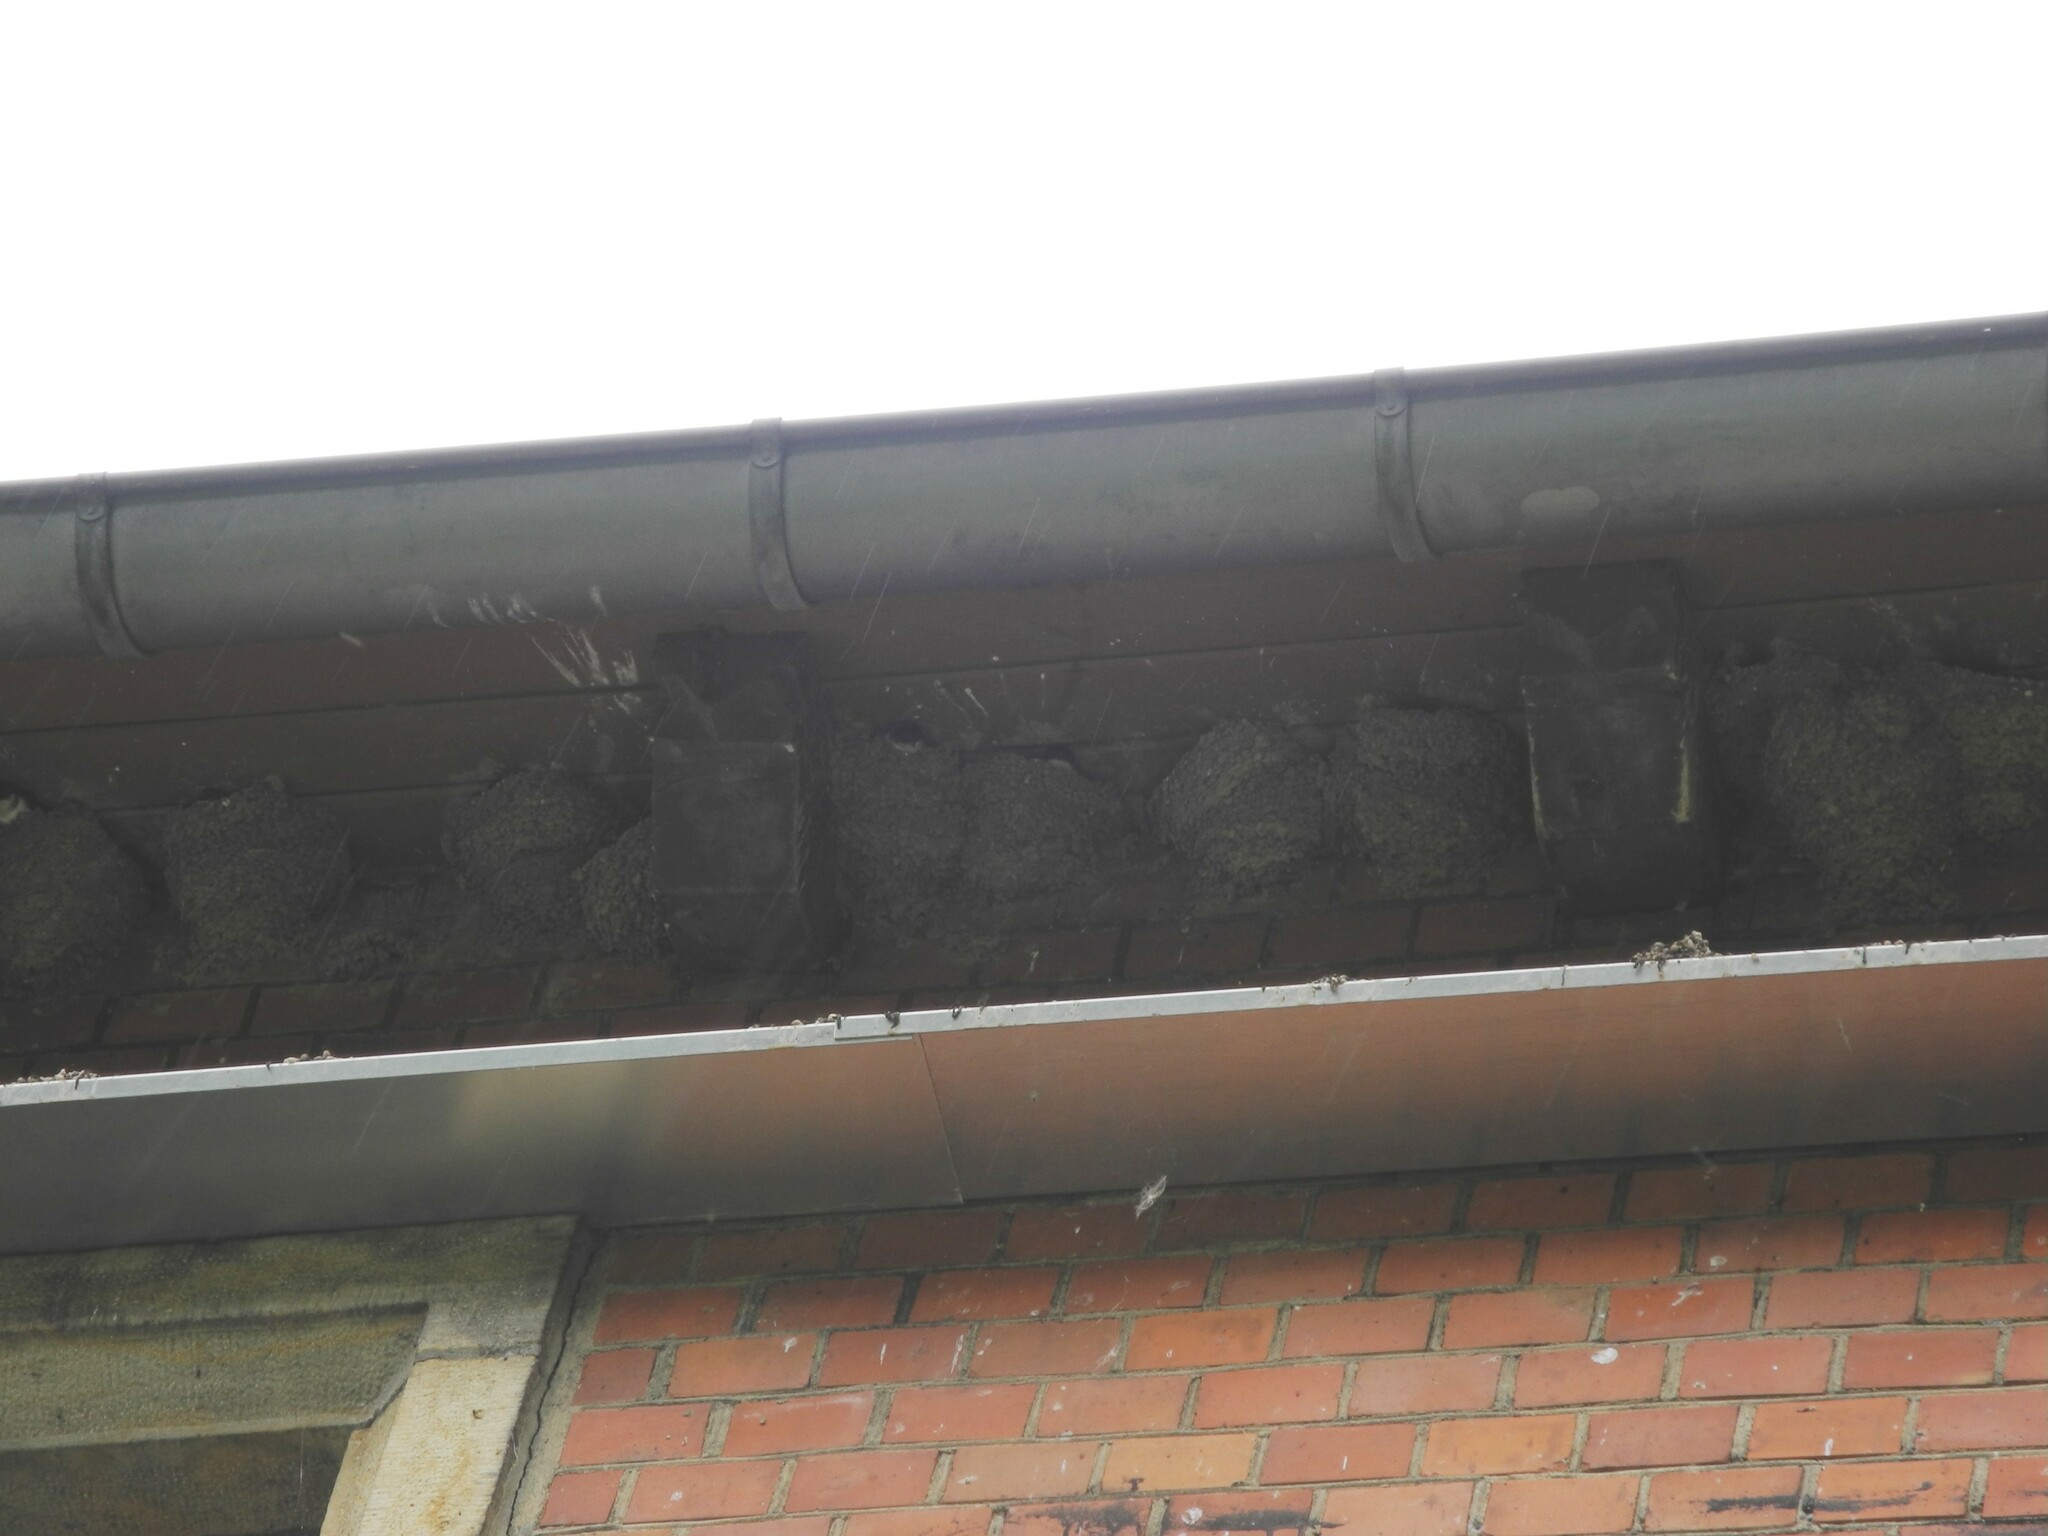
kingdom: Animalia
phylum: Chordata
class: Aves
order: Passeriformes
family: Hirundinidae
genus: Delichon
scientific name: Delichon urbicum
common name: Common house martin
